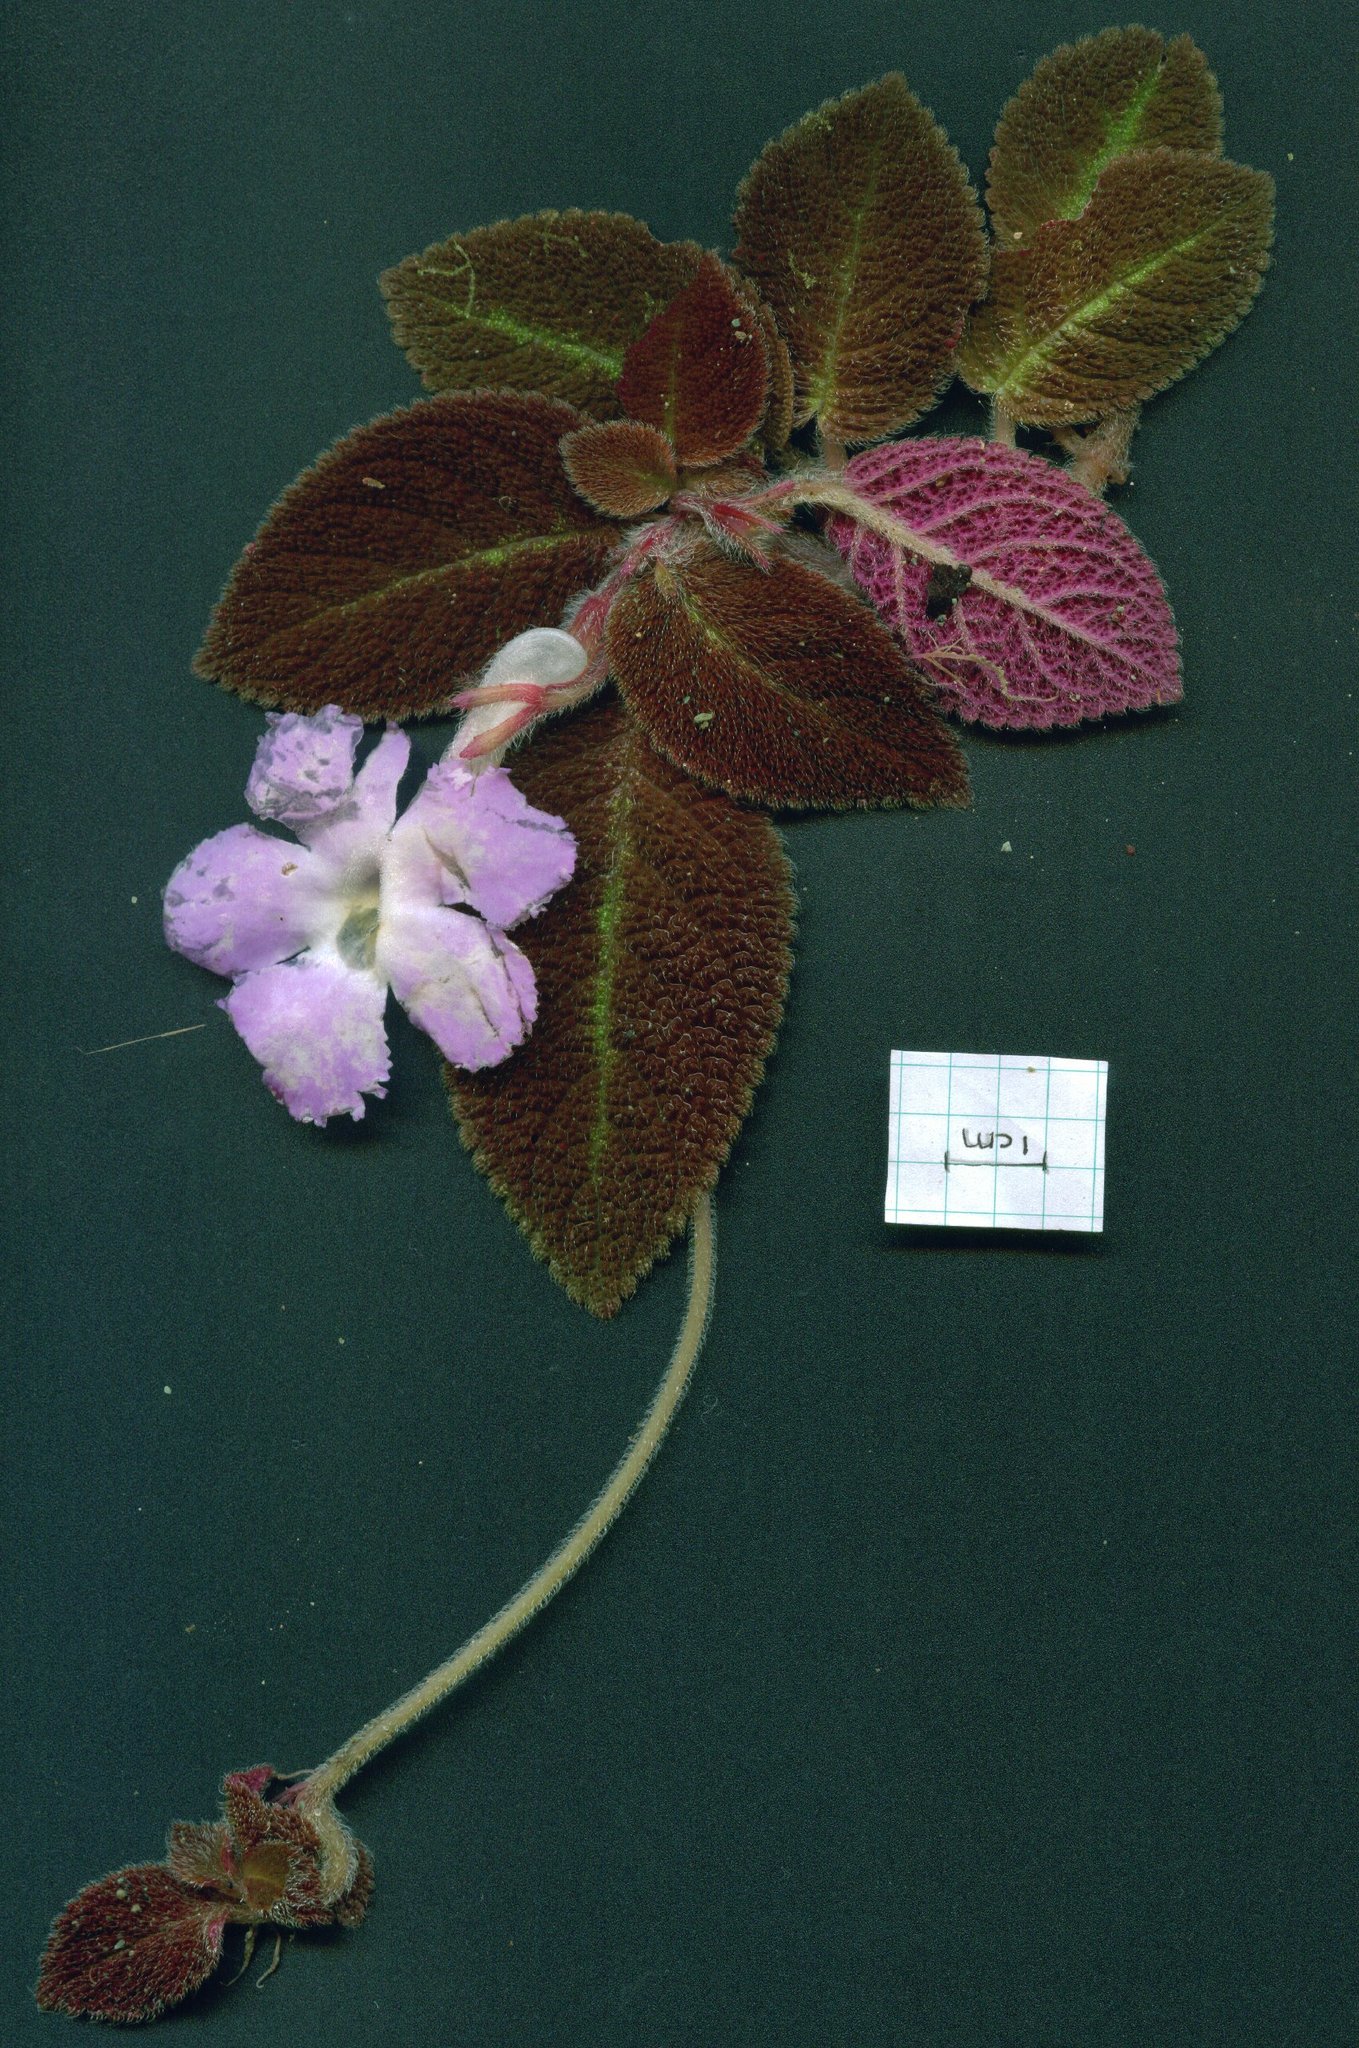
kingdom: Plantae
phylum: Tracheophyta
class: Magnoliopsida
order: Lamiales
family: Gesneriaceae
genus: Episcia
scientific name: Episcia lilacina
